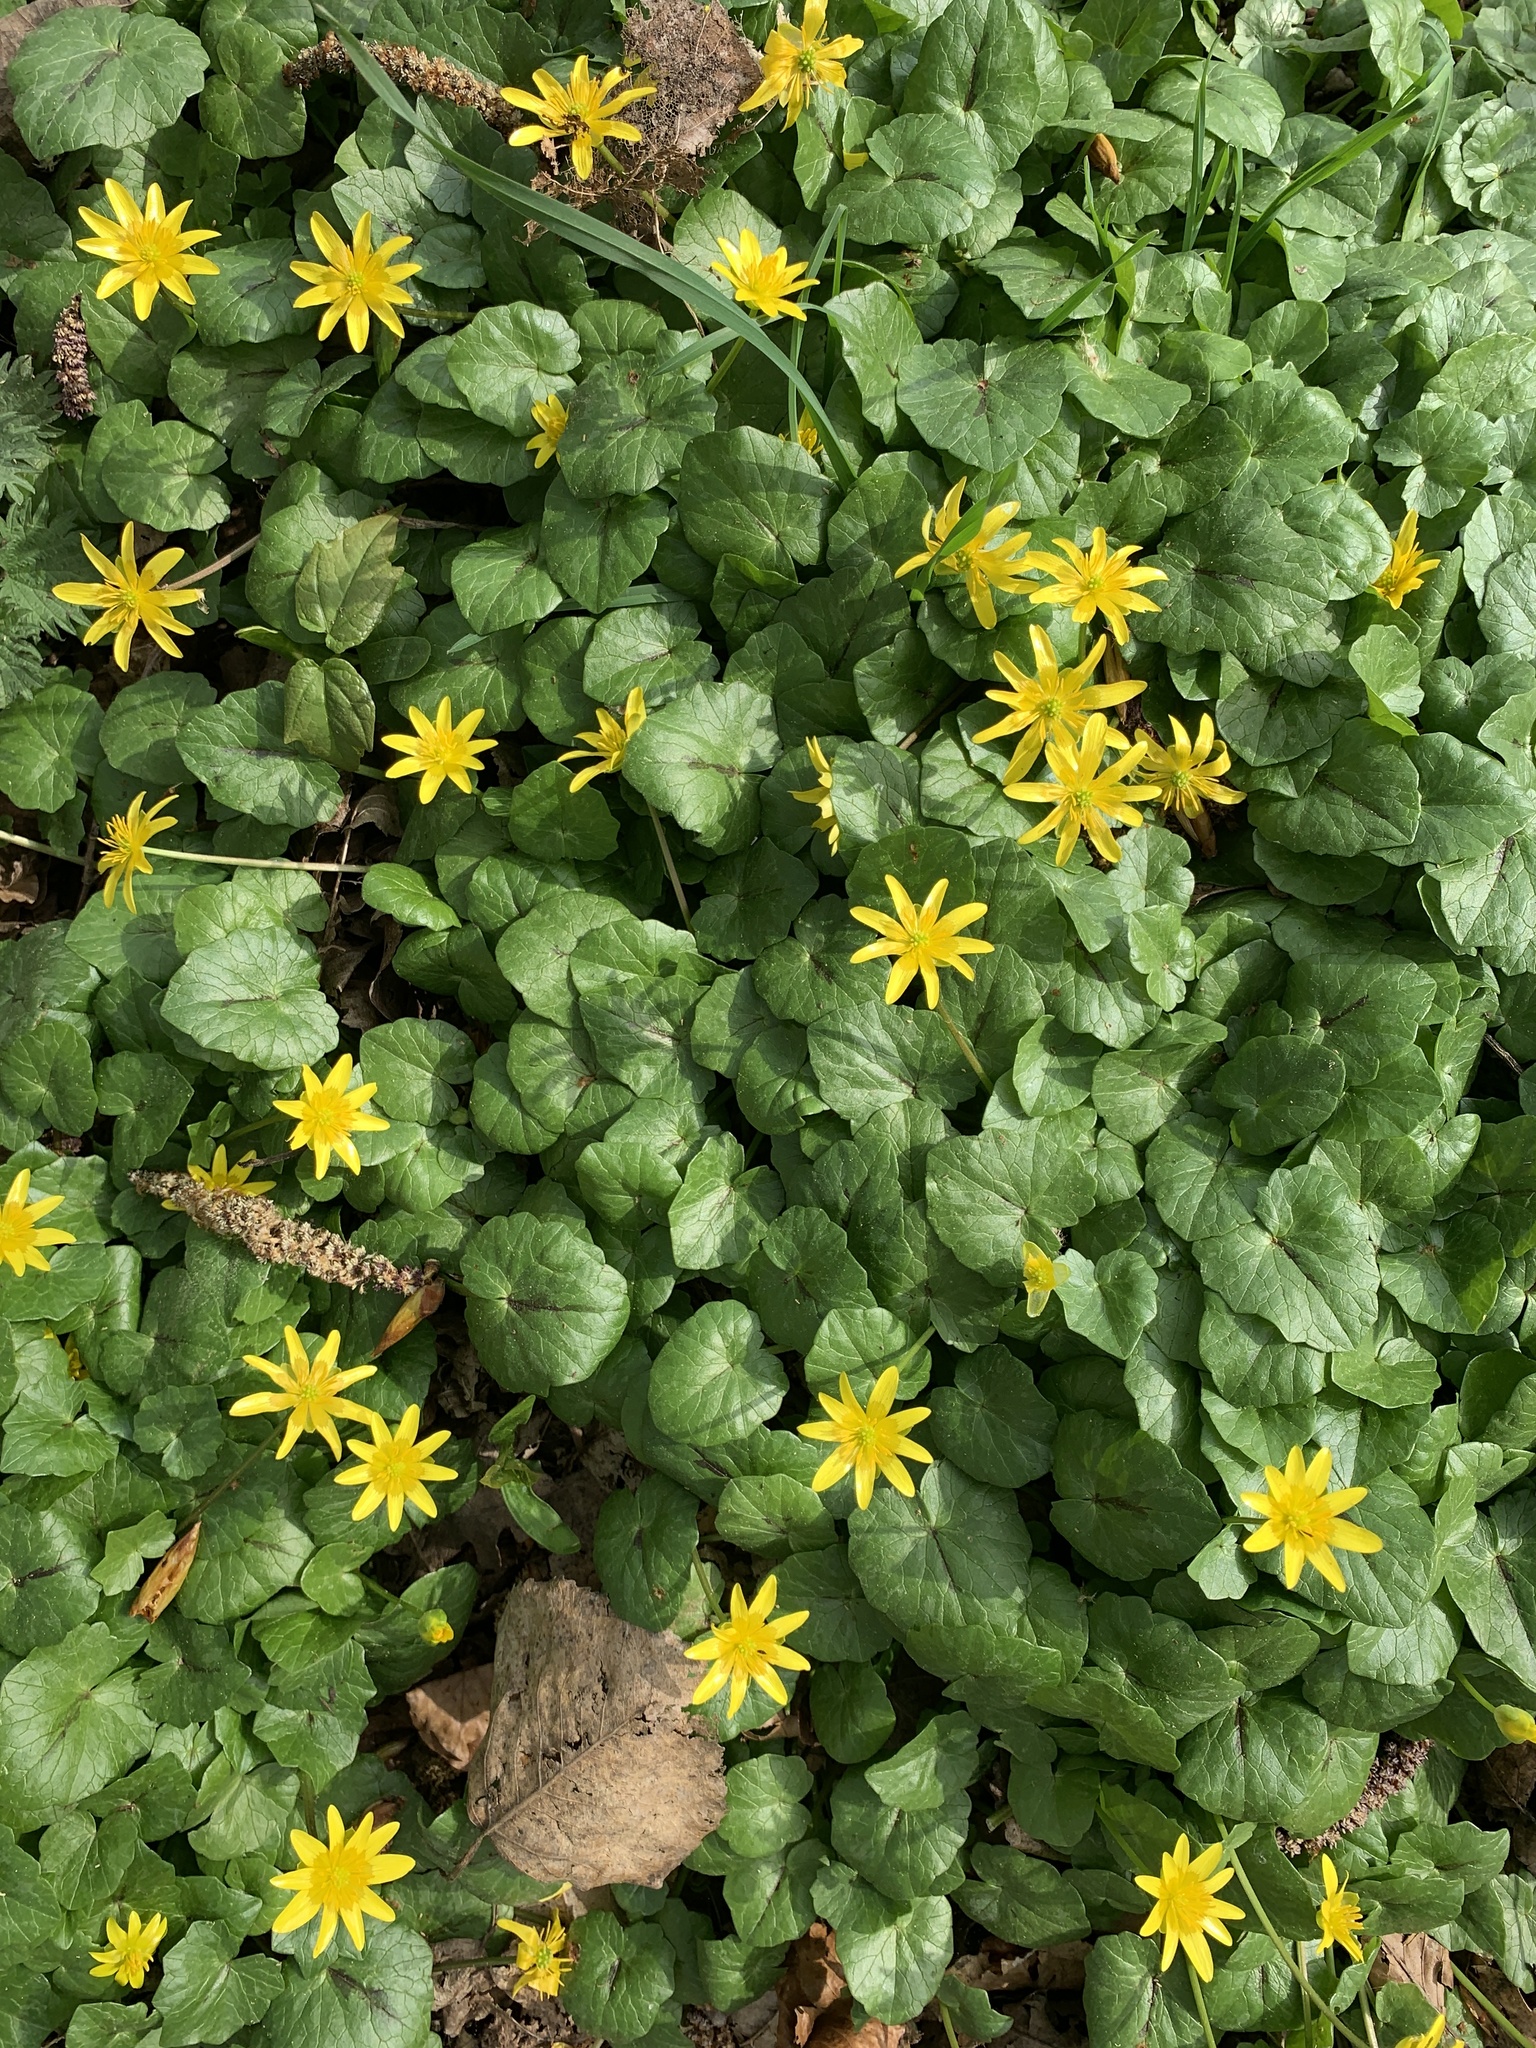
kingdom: Plantae
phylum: Tracheophyta
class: Magnoliopsida
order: Ranunculales
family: Ranunculaceae
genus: Ficaria
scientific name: Ficaria verna
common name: Lesser celandine
